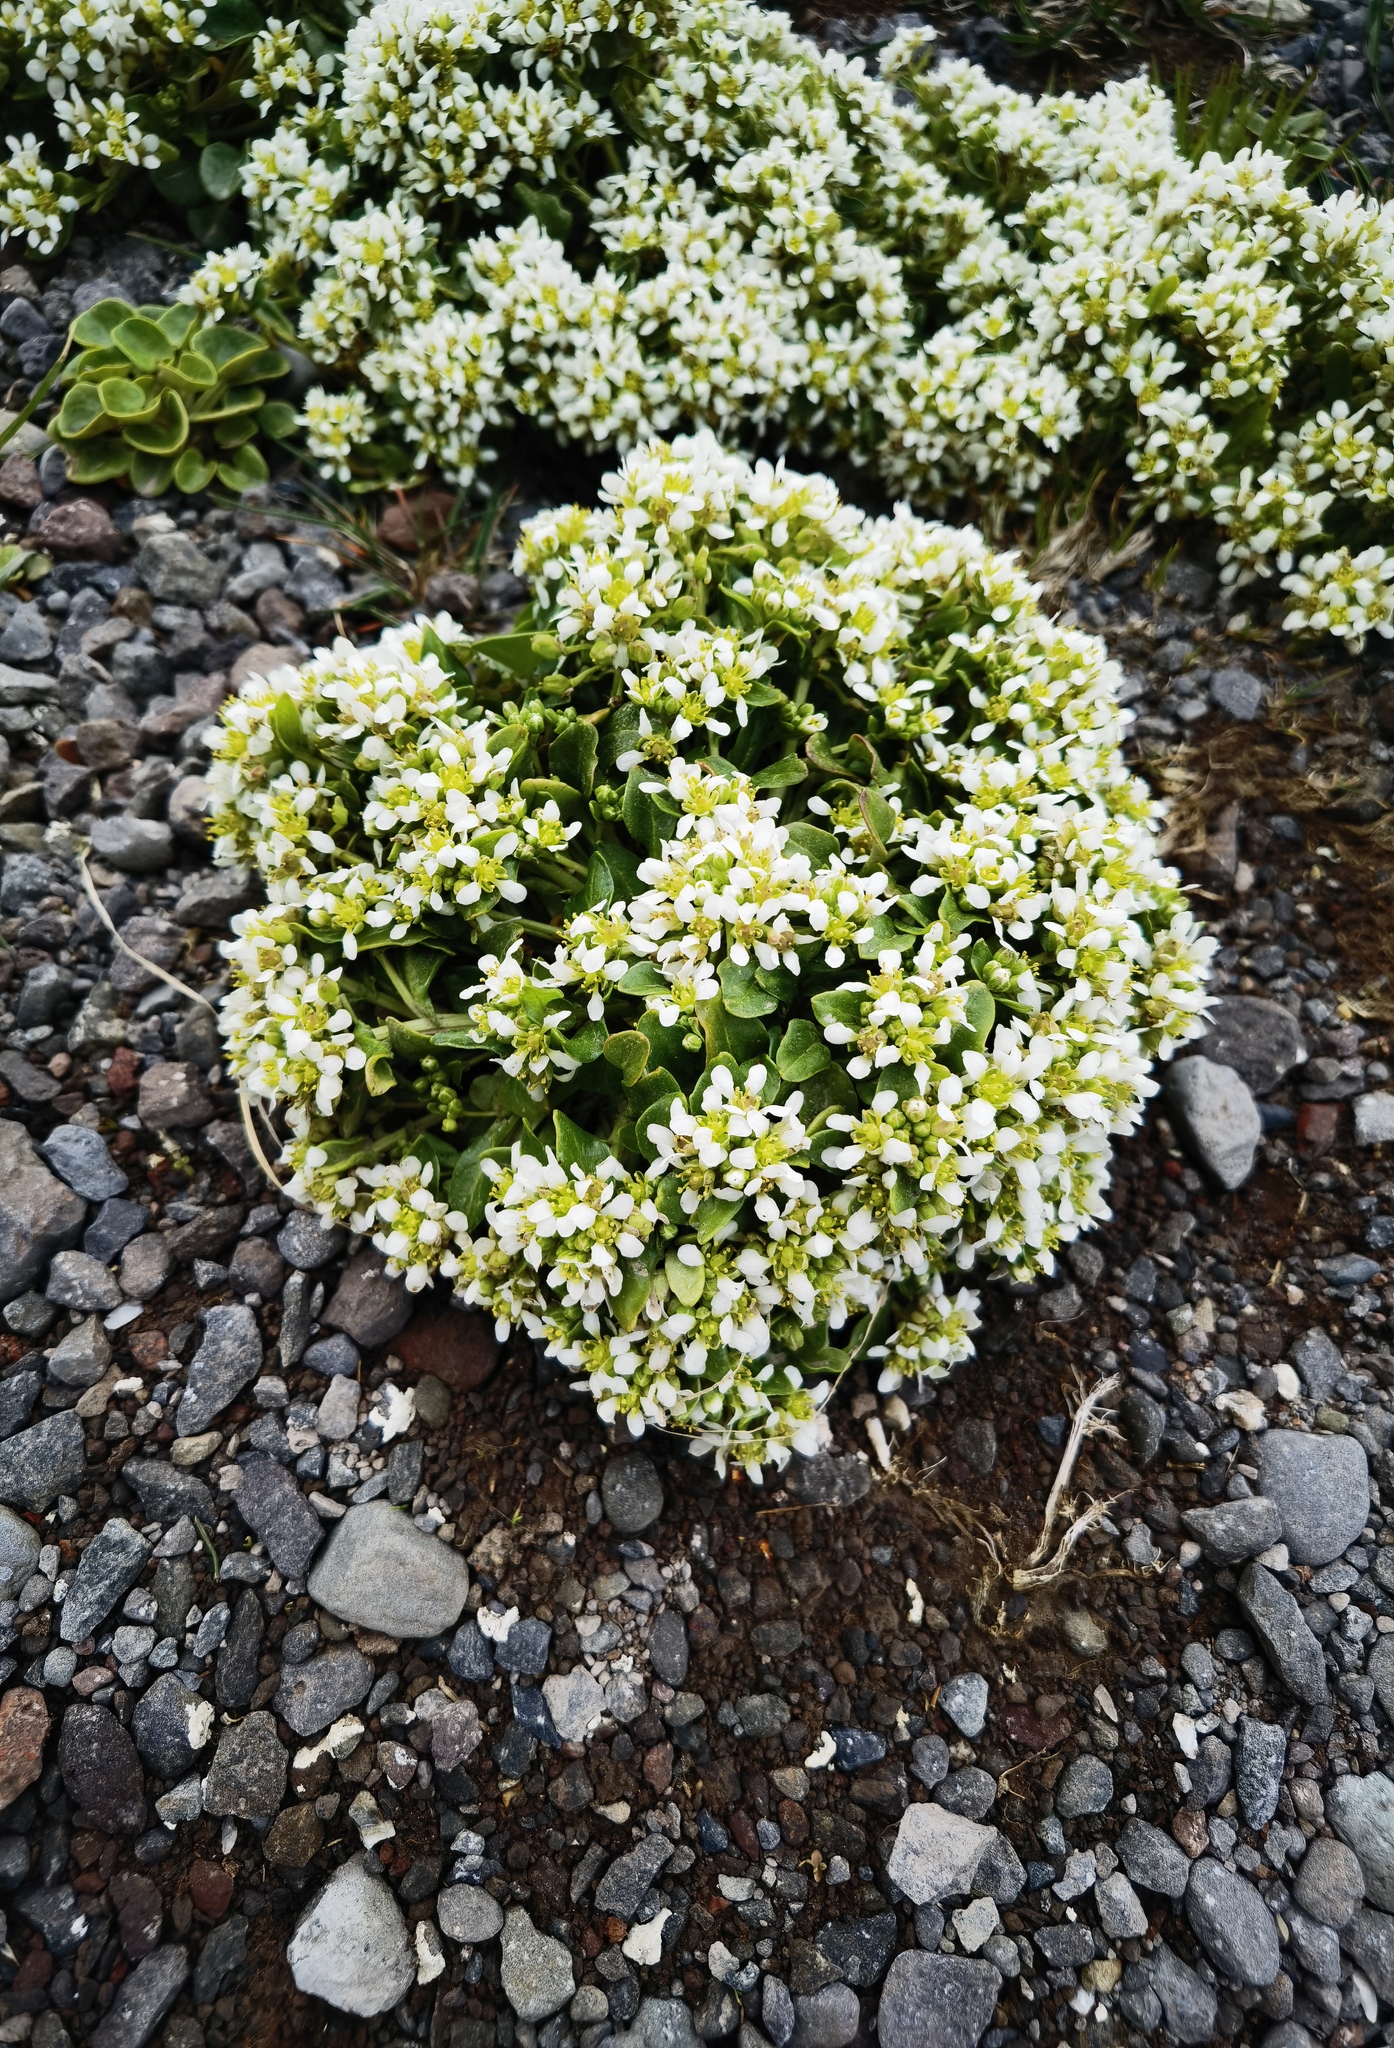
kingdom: Plantae
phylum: Tracheophyta
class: Magnoliopsida
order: Brassicales
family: Brassicaceae
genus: Cochlearia
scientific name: Cochlearia officinalis
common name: Scurvy-grass
